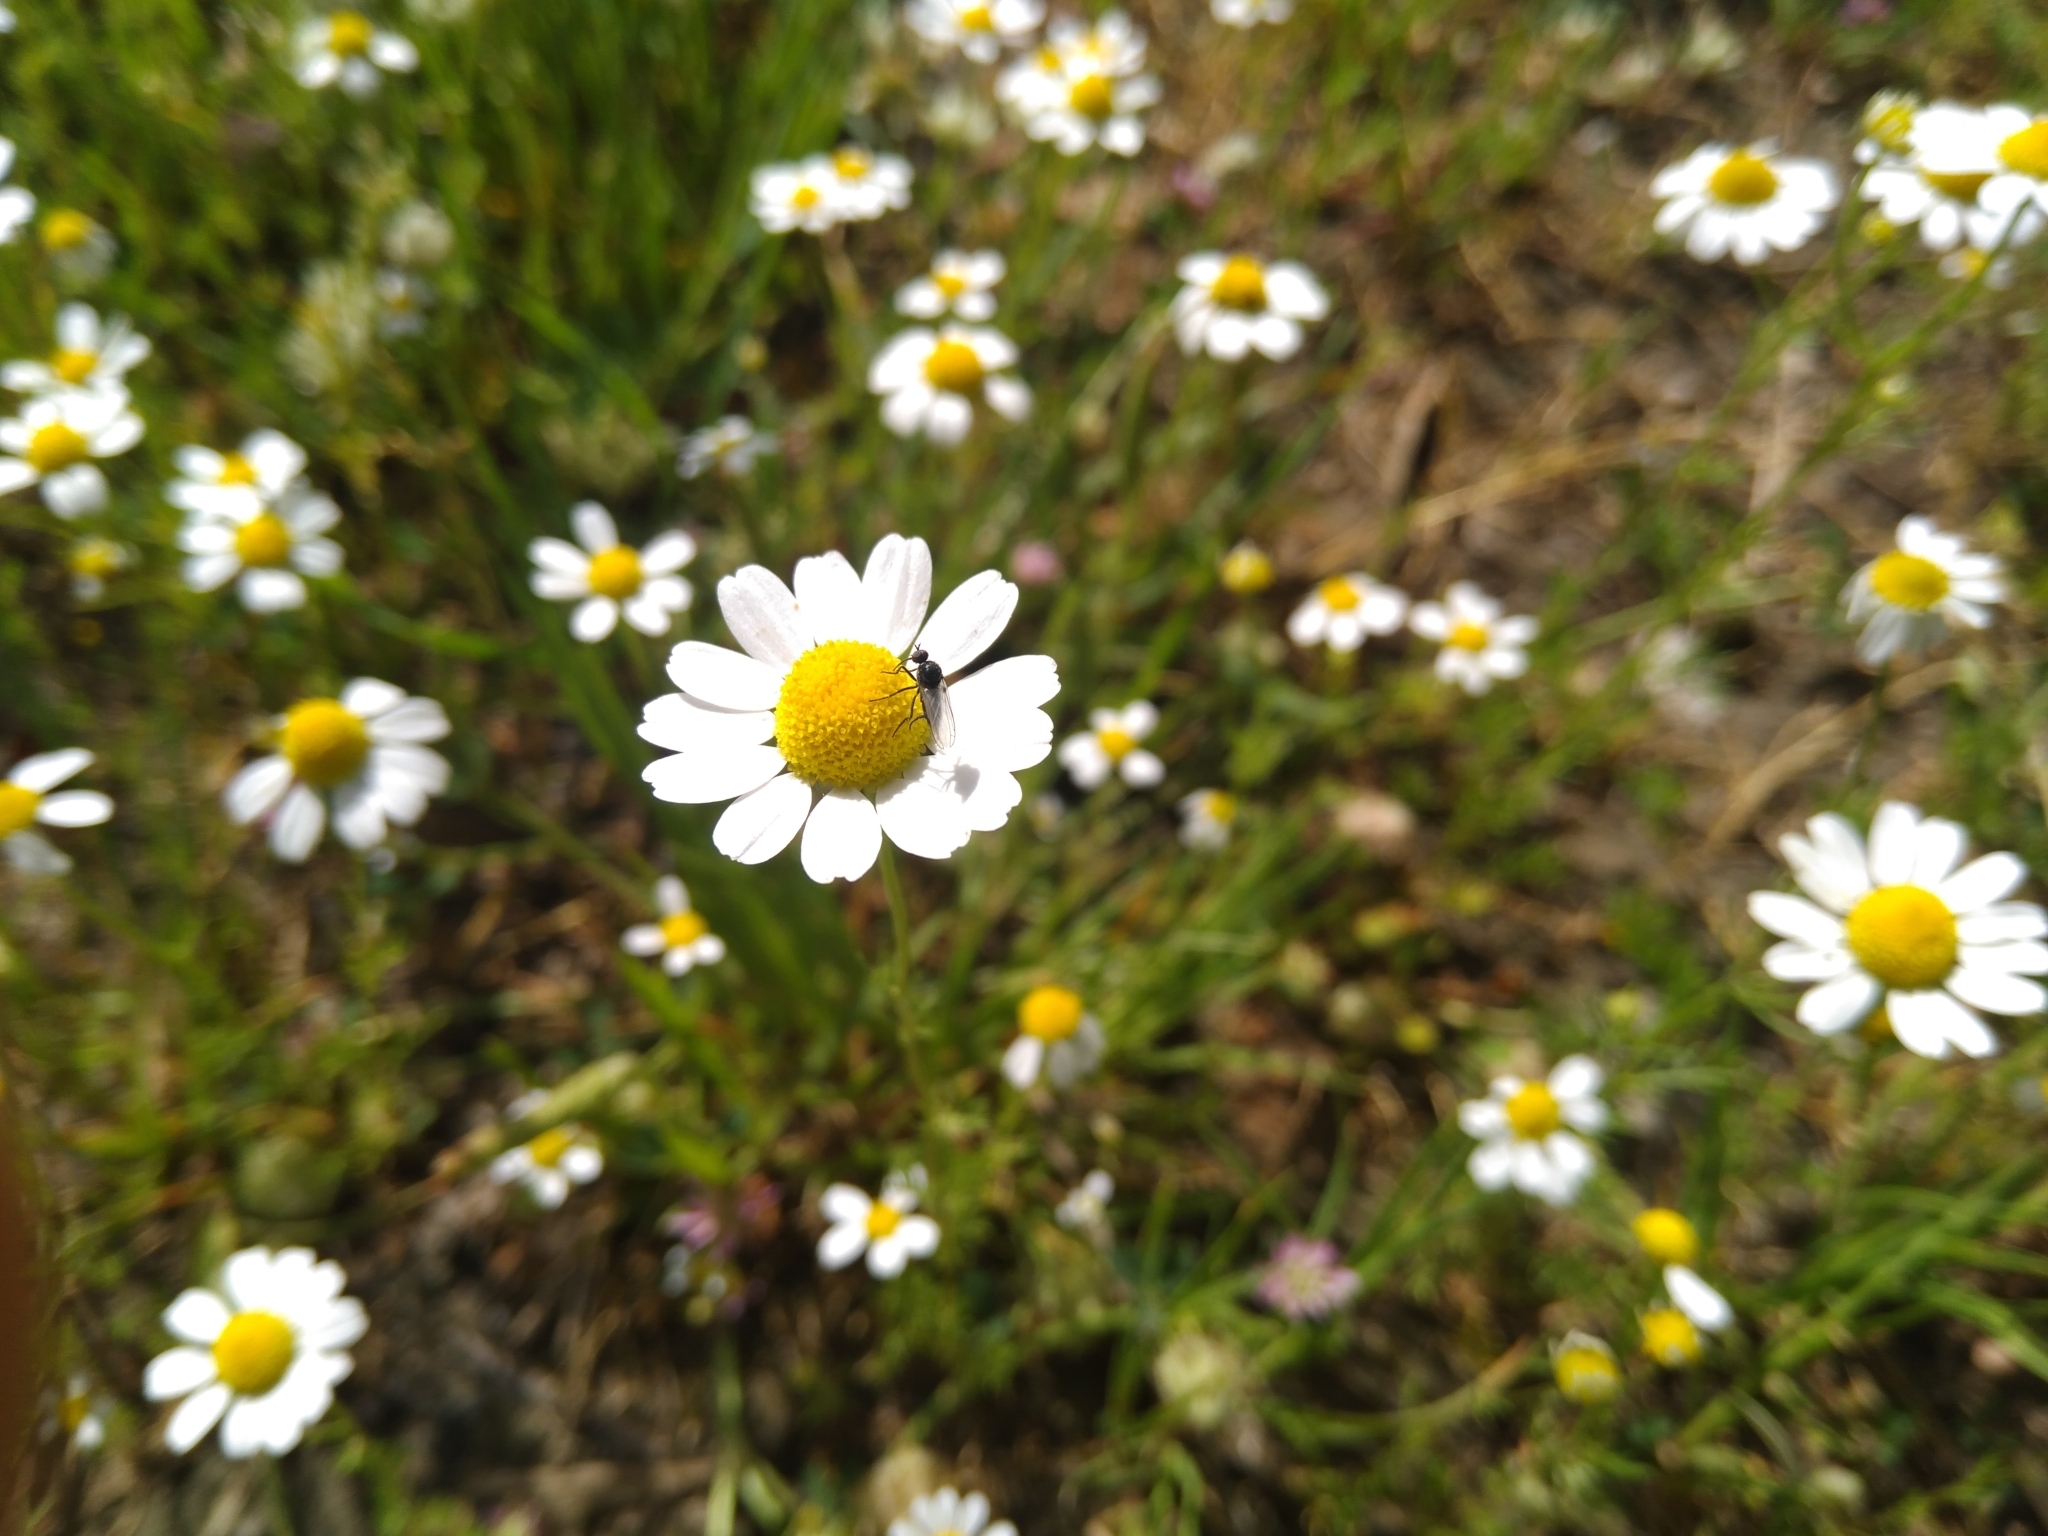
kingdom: Plantae
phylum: Tracheophyta
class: Magnoliopsida
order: Asterales
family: Asteraceae
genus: Chamaemelum
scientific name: Chamaemelum nobile
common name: Roman chamomile
